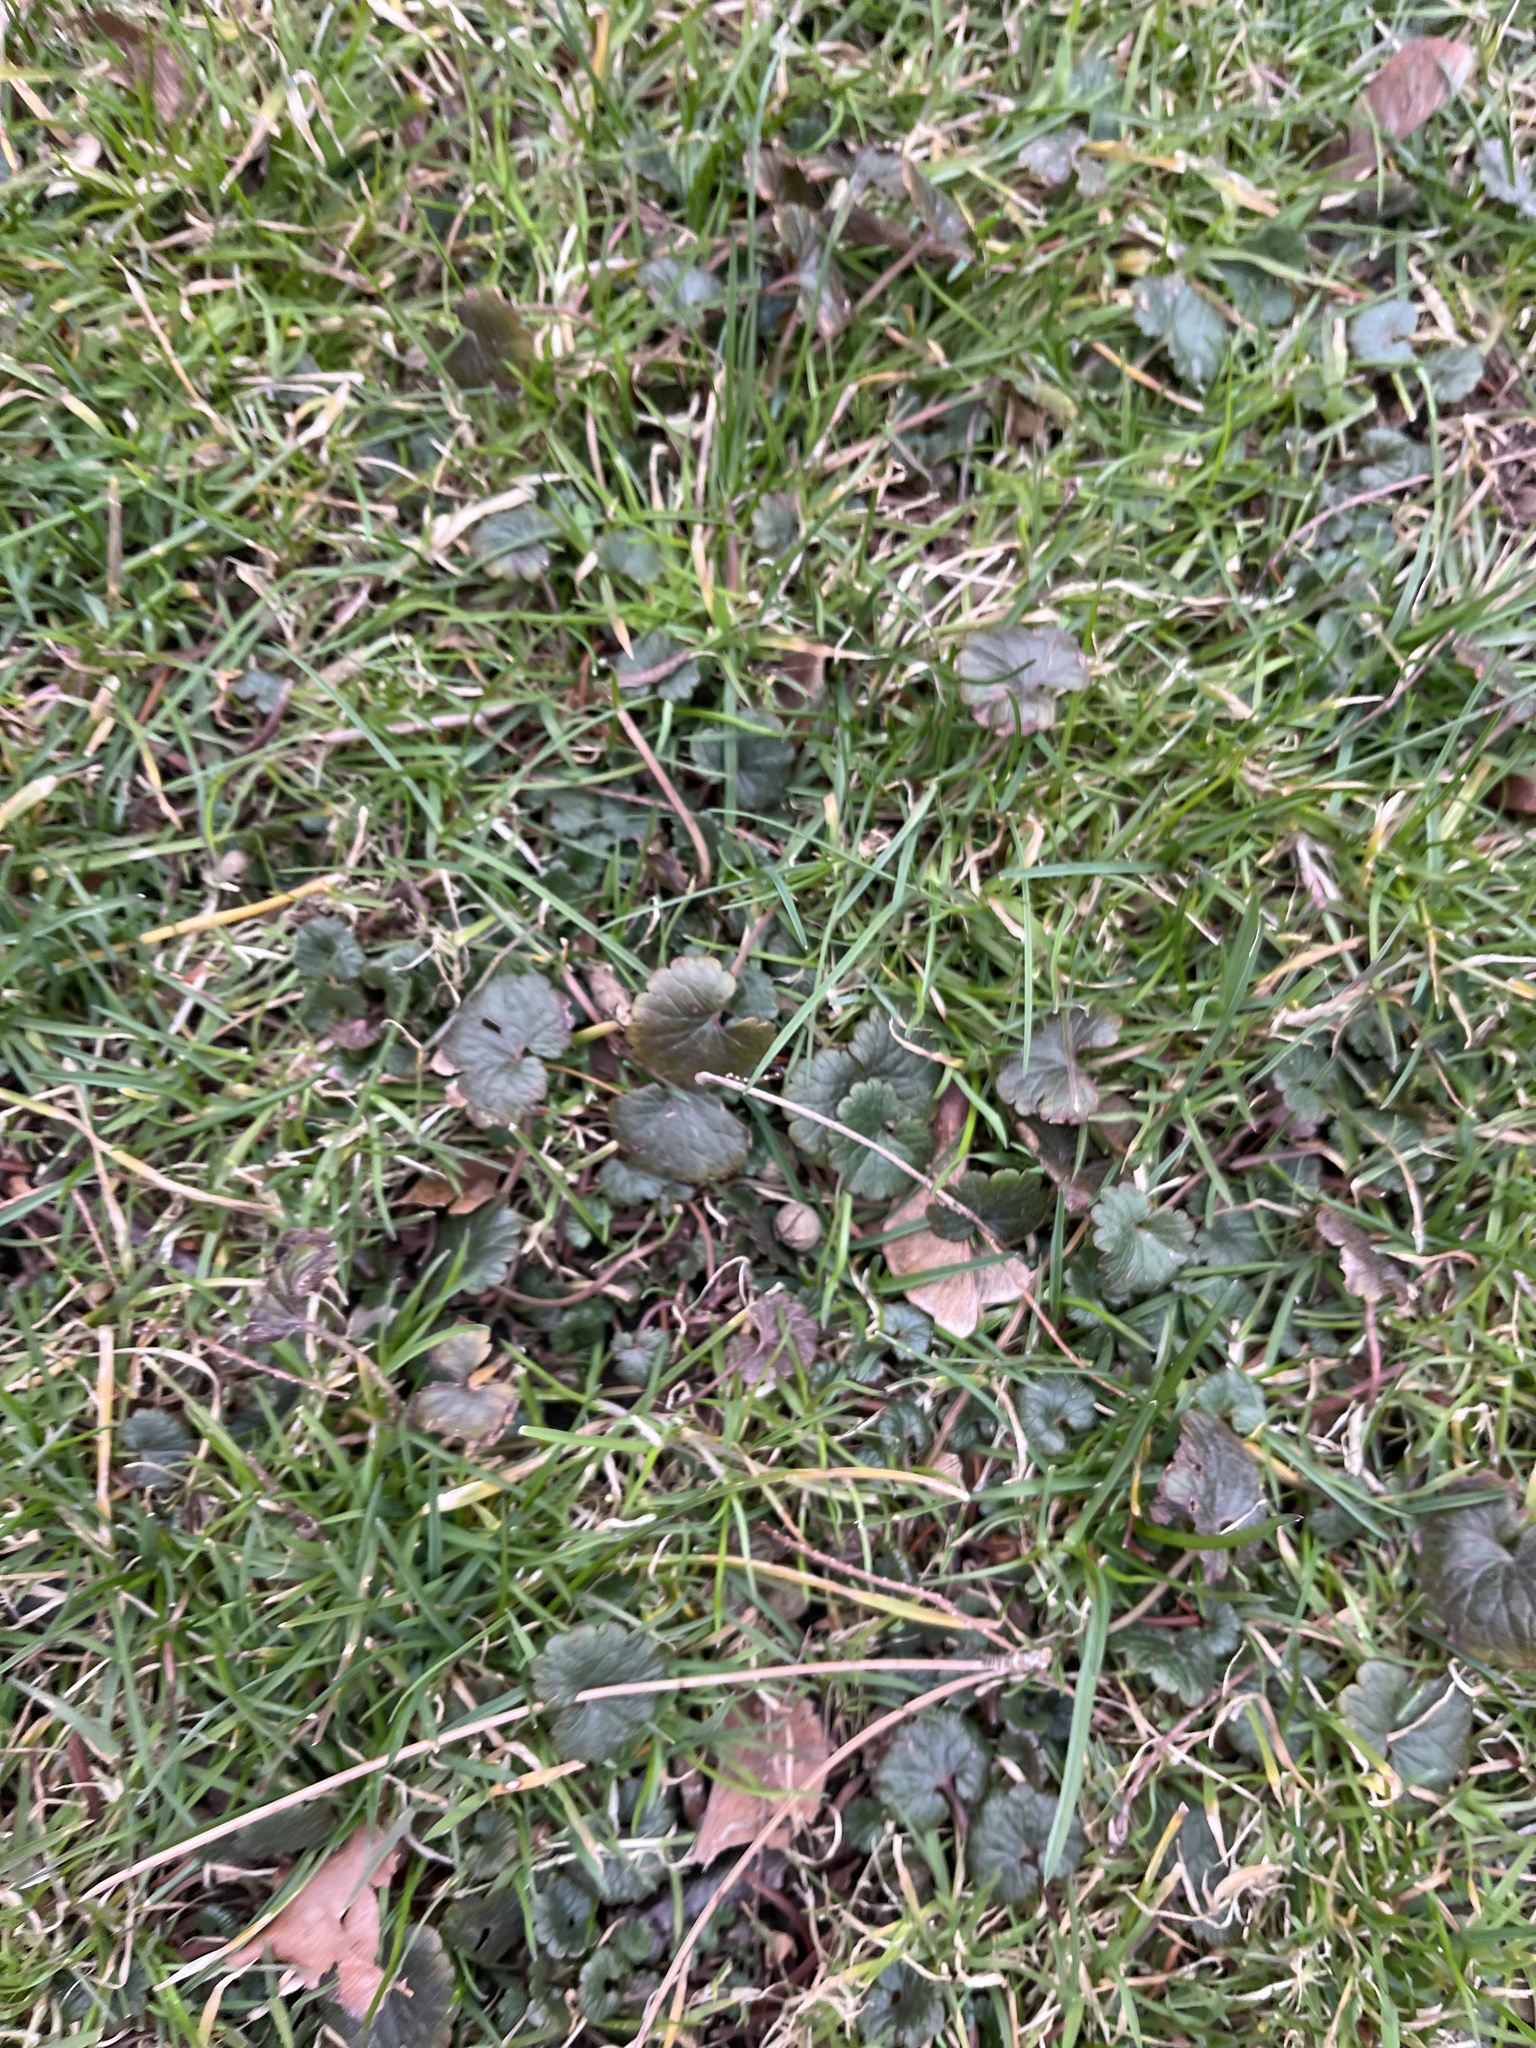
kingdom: Plantae
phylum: Tracheophyta
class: Magnoliopsida
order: Lamiales
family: Lamiaceae
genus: Glechoma
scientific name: Glechoma hederacea
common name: Ground ivy
